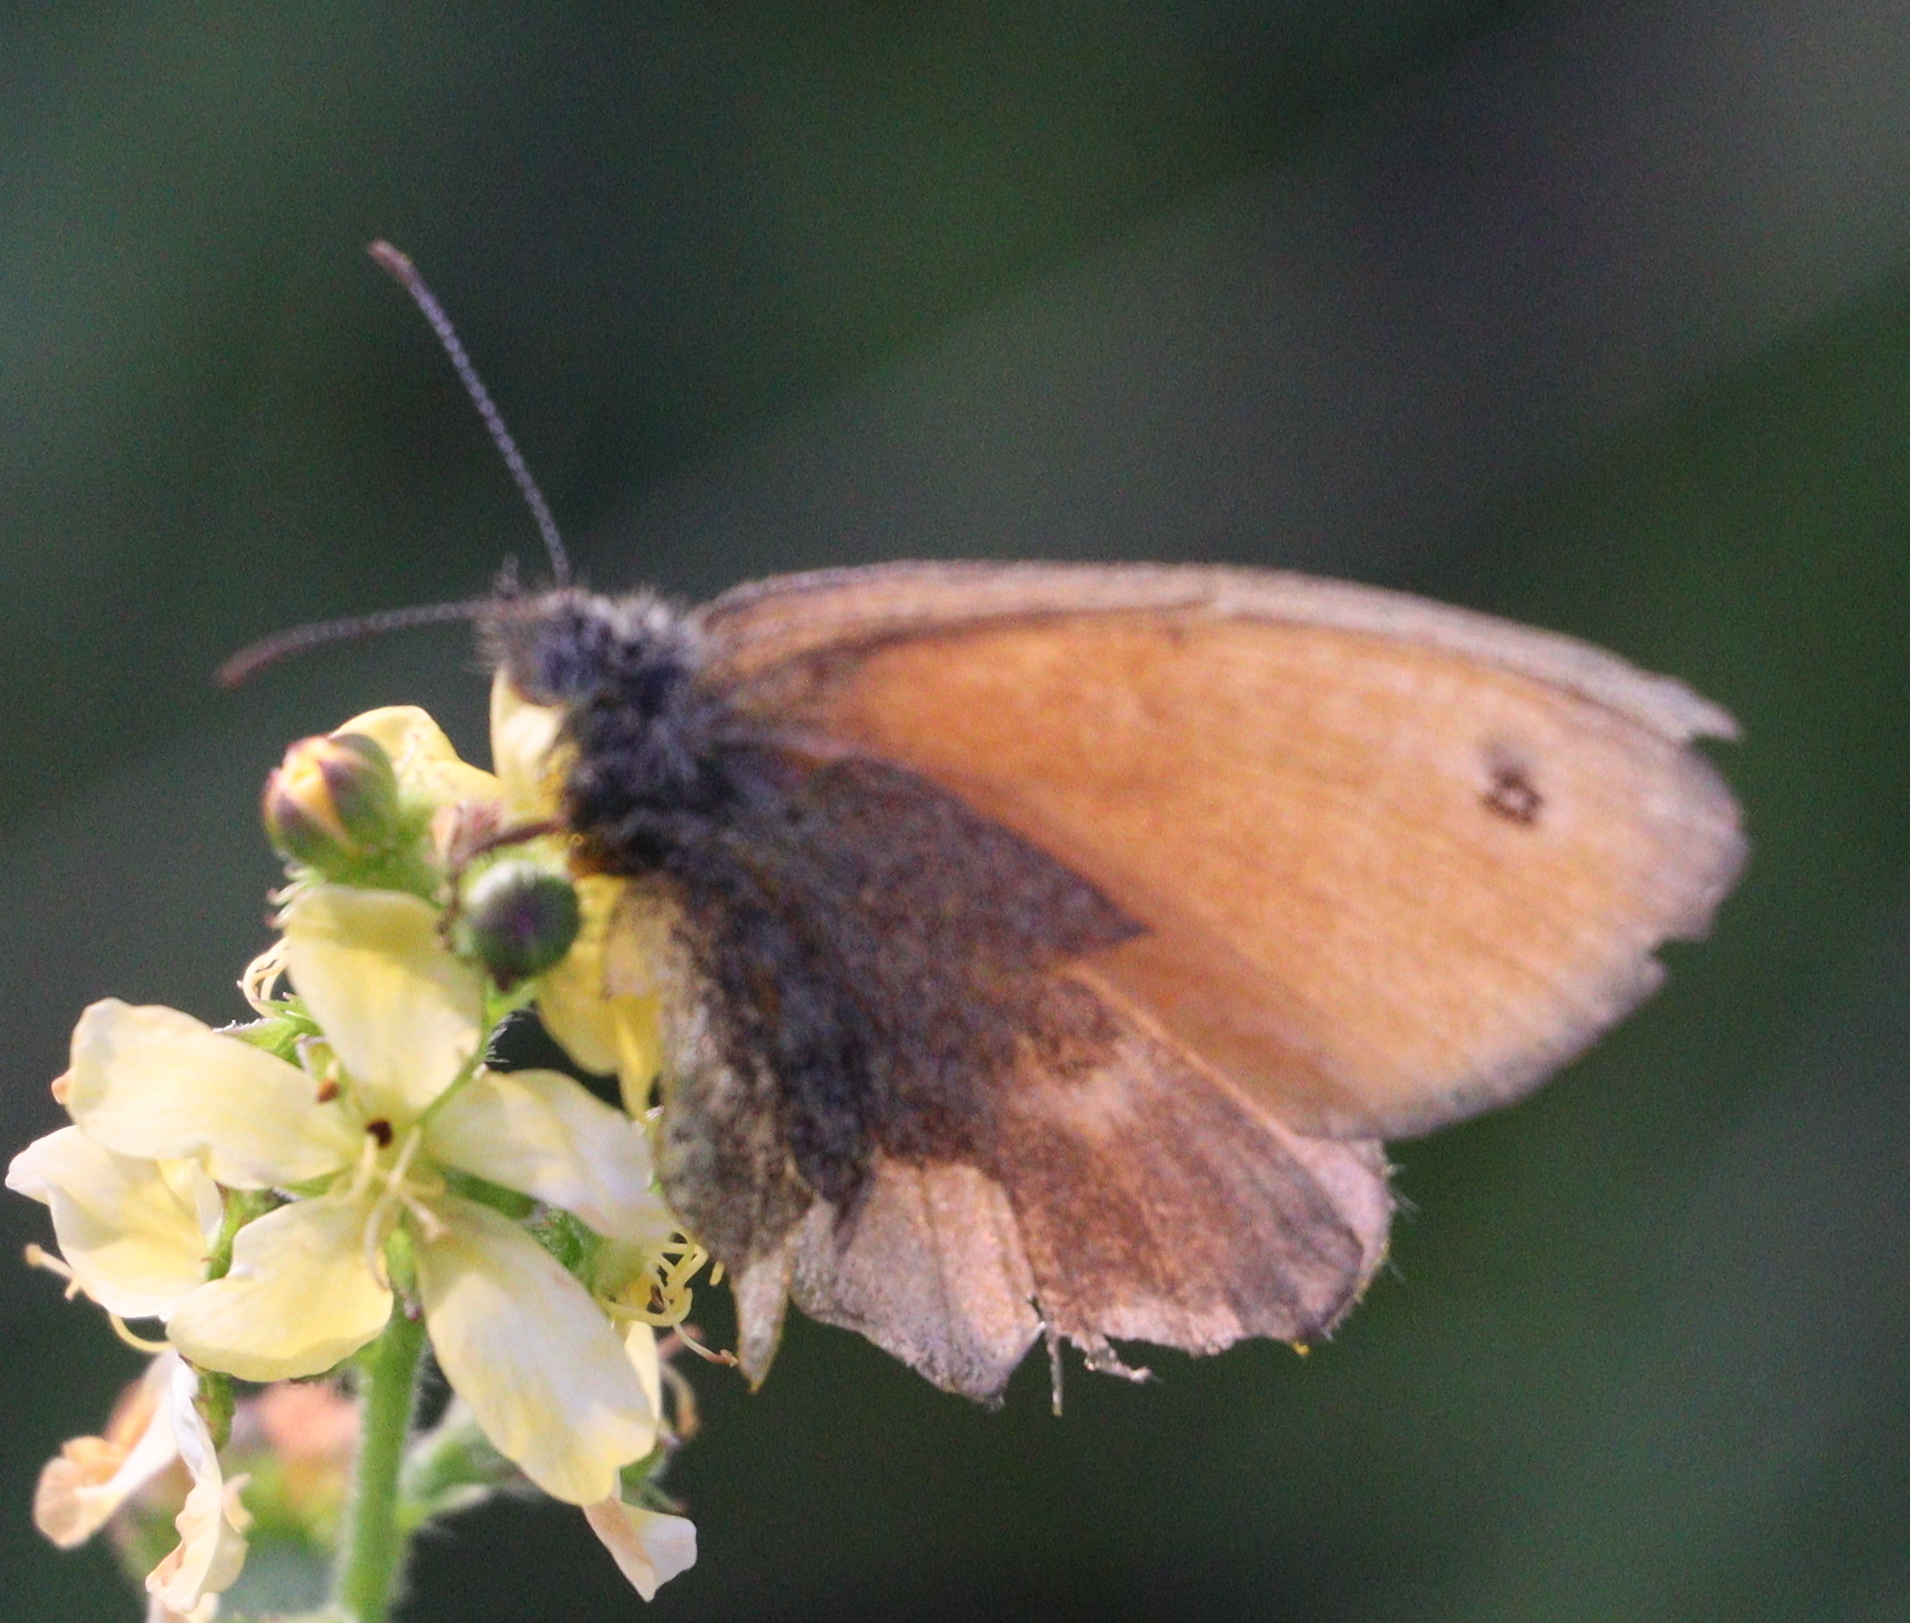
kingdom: Animalia
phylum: Arthropoda
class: Insecta
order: Lepidoptera
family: Nymphalidae
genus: Coenonympha
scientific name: Coenonympha pamphilus
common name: Small heath
